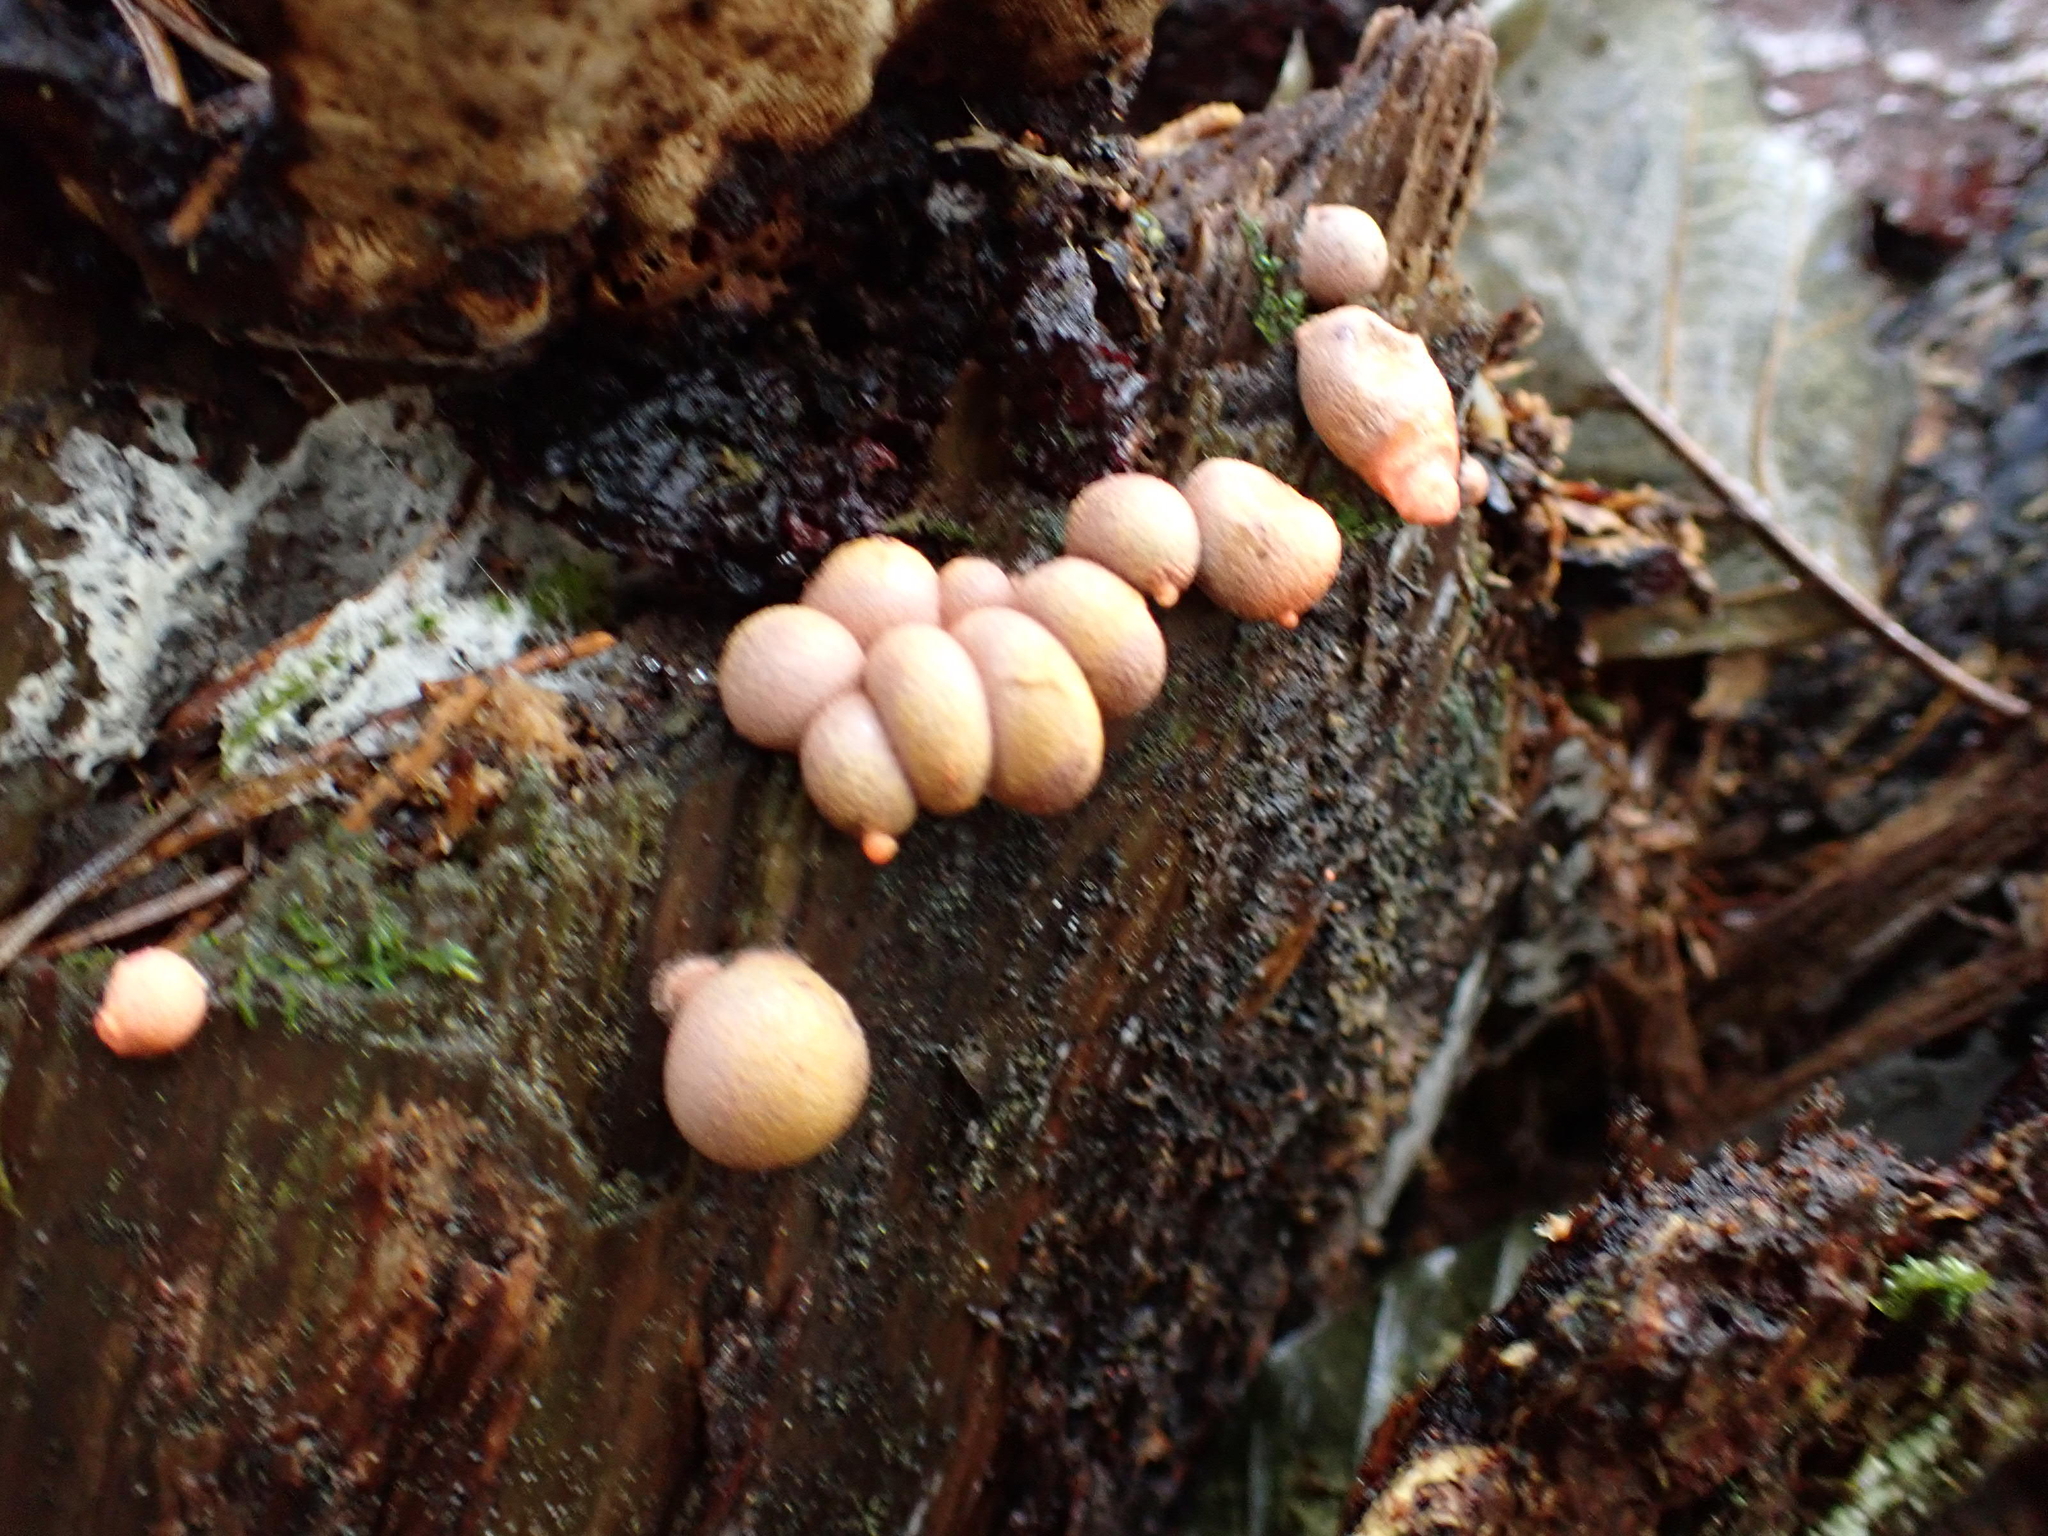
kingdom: Protozoa
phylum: Mycetozoa
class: Myxomycetes
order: Cribrariales
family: Tubiferaceae
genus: Lycogala
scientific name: Lycogala epidendrum
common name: Wolf's milk
